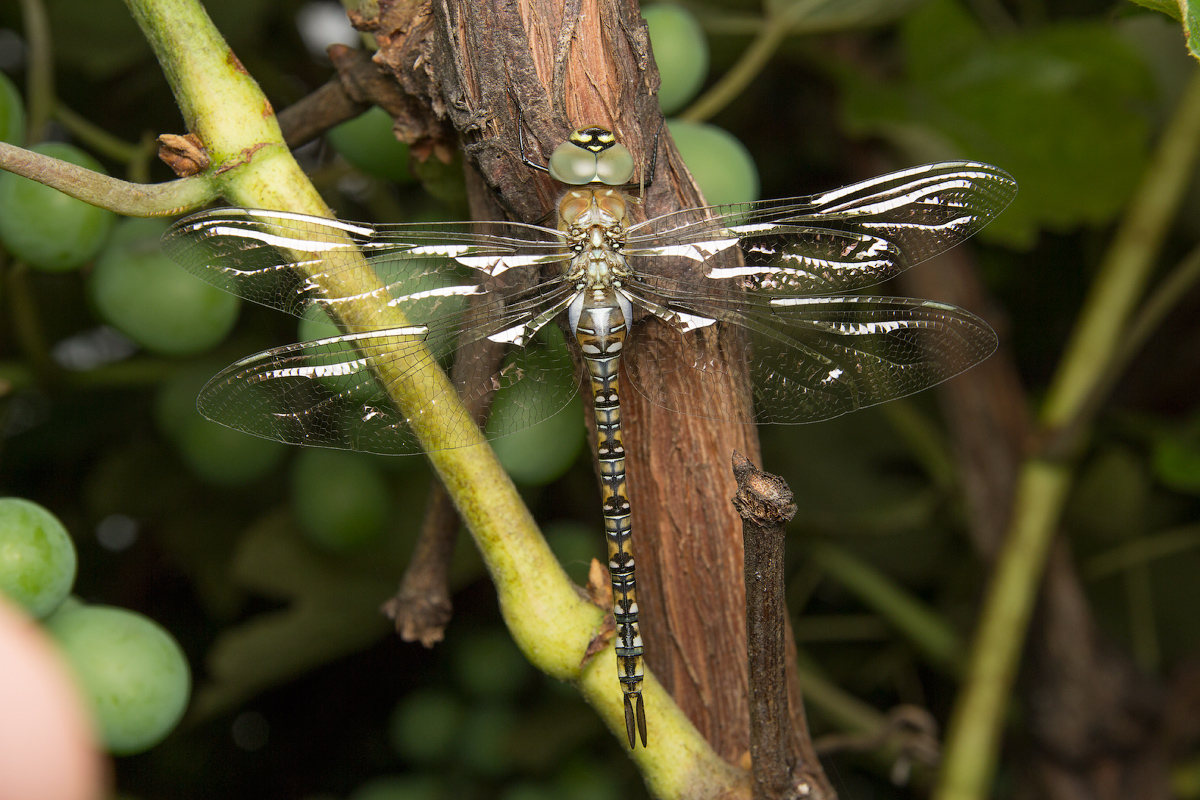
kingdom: Animalia
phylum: Arthropoda
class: Insecta
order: Odonata
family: Aeshnidae
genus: Aeshna
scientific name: Aeshna mixta
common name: Migrant hawker
